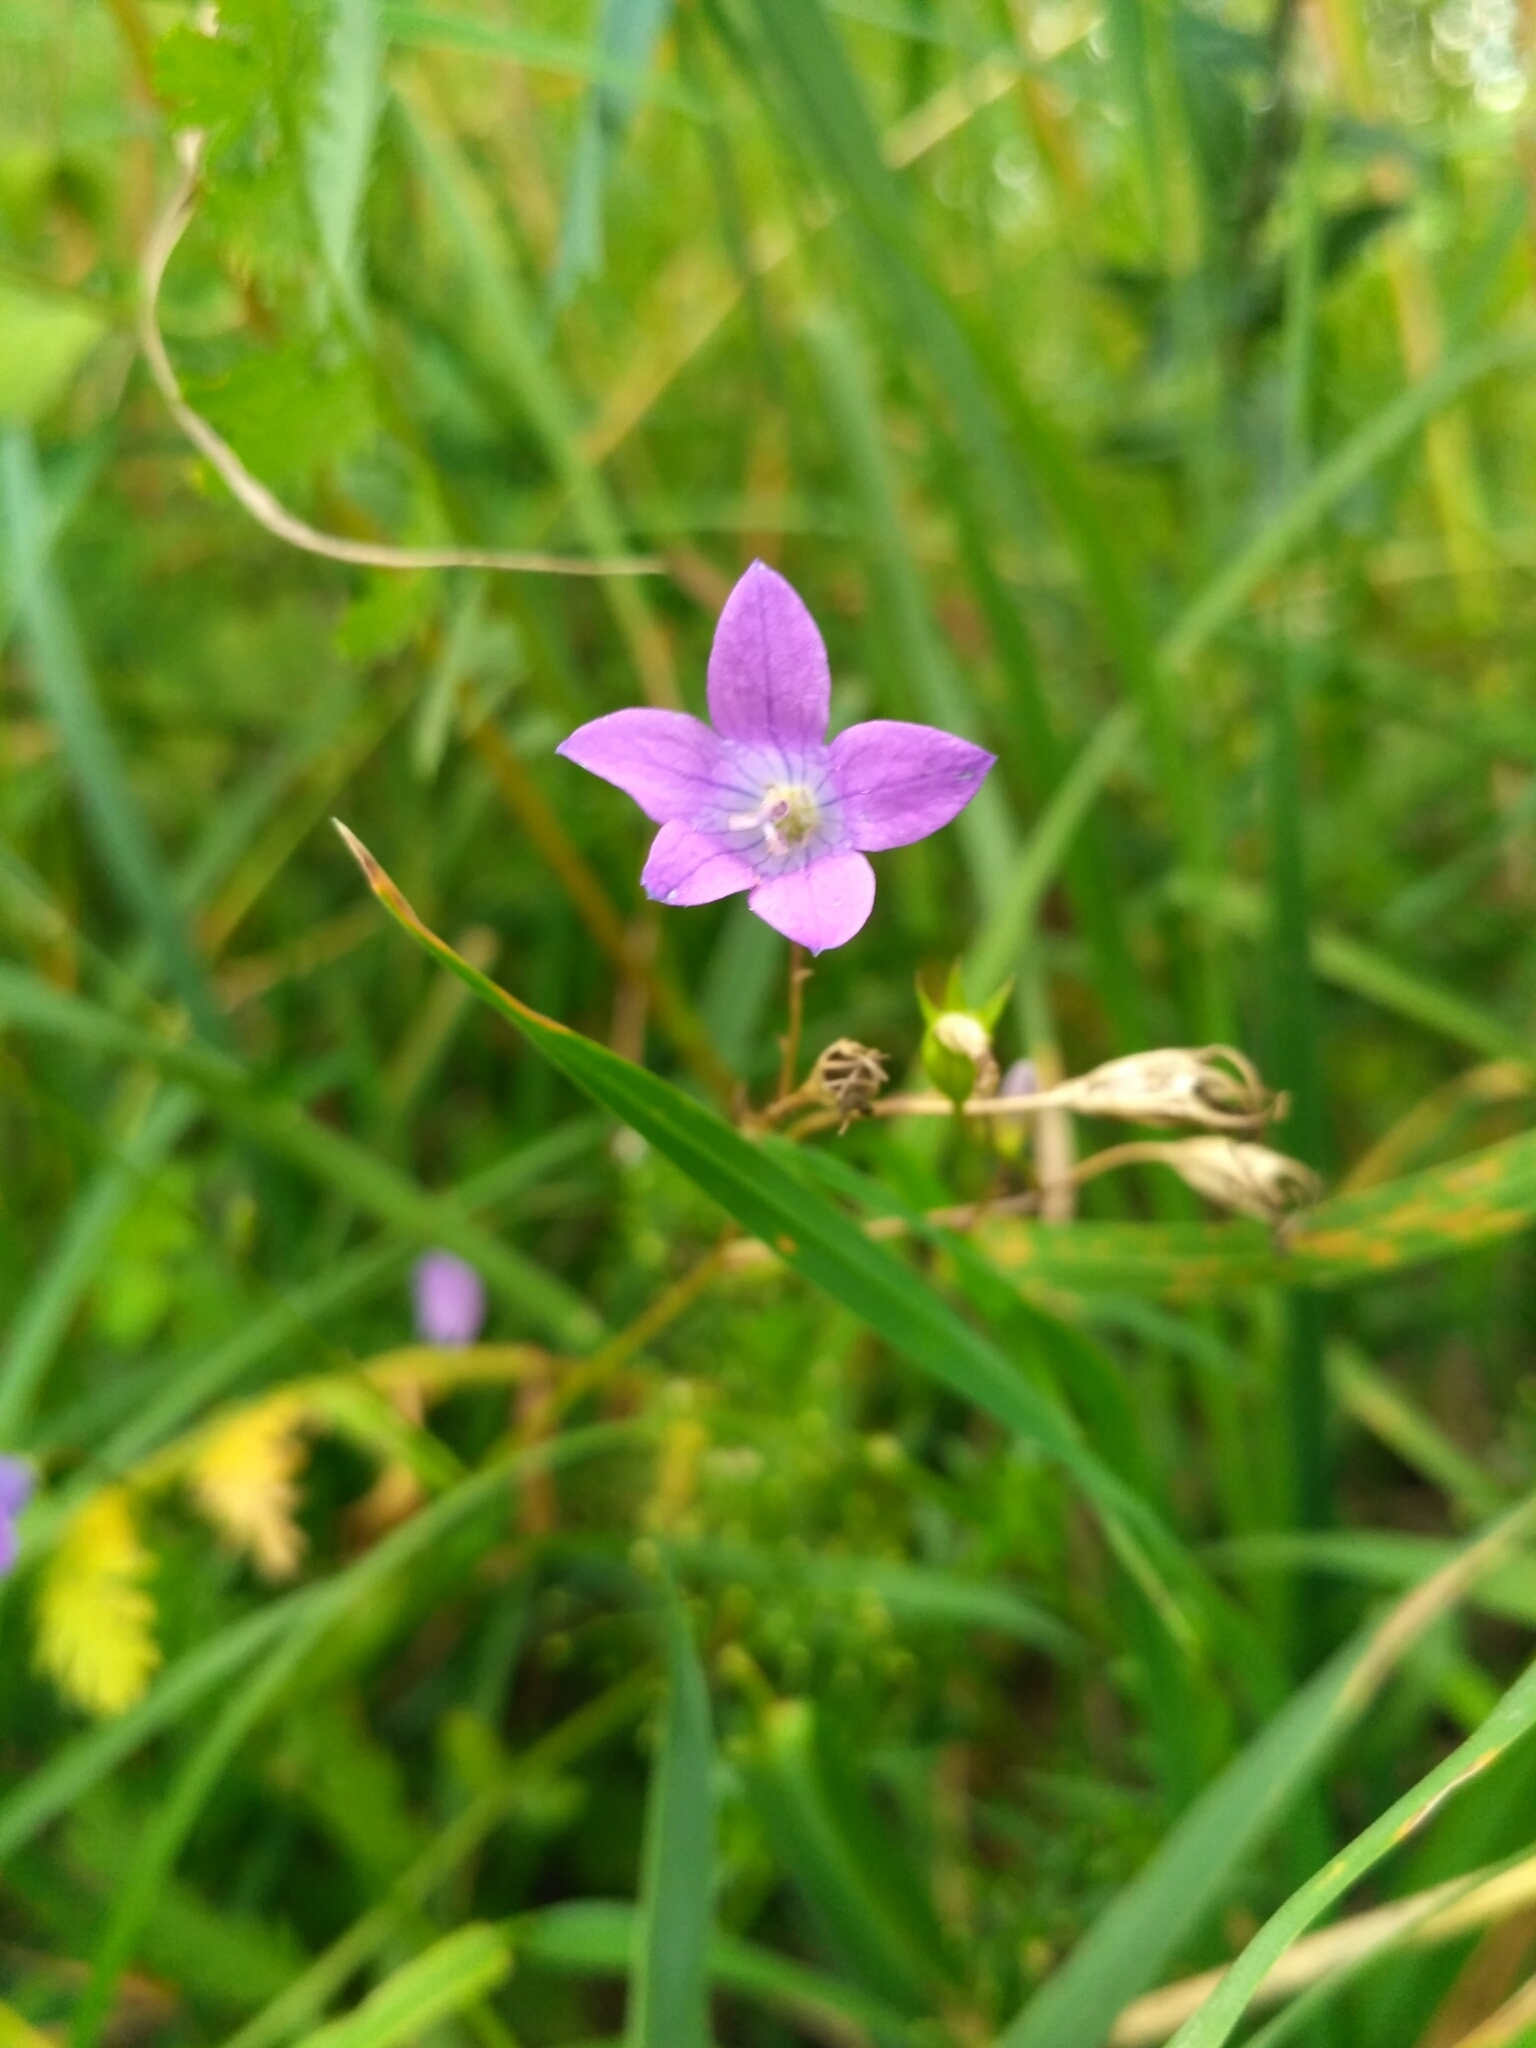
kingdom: Plantae
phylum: Tracheophyta
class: Magnoliopsida
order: Asterales
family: Campanulaceae
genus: Campanula
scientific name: Campanula patula
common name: Spreading bellflower
